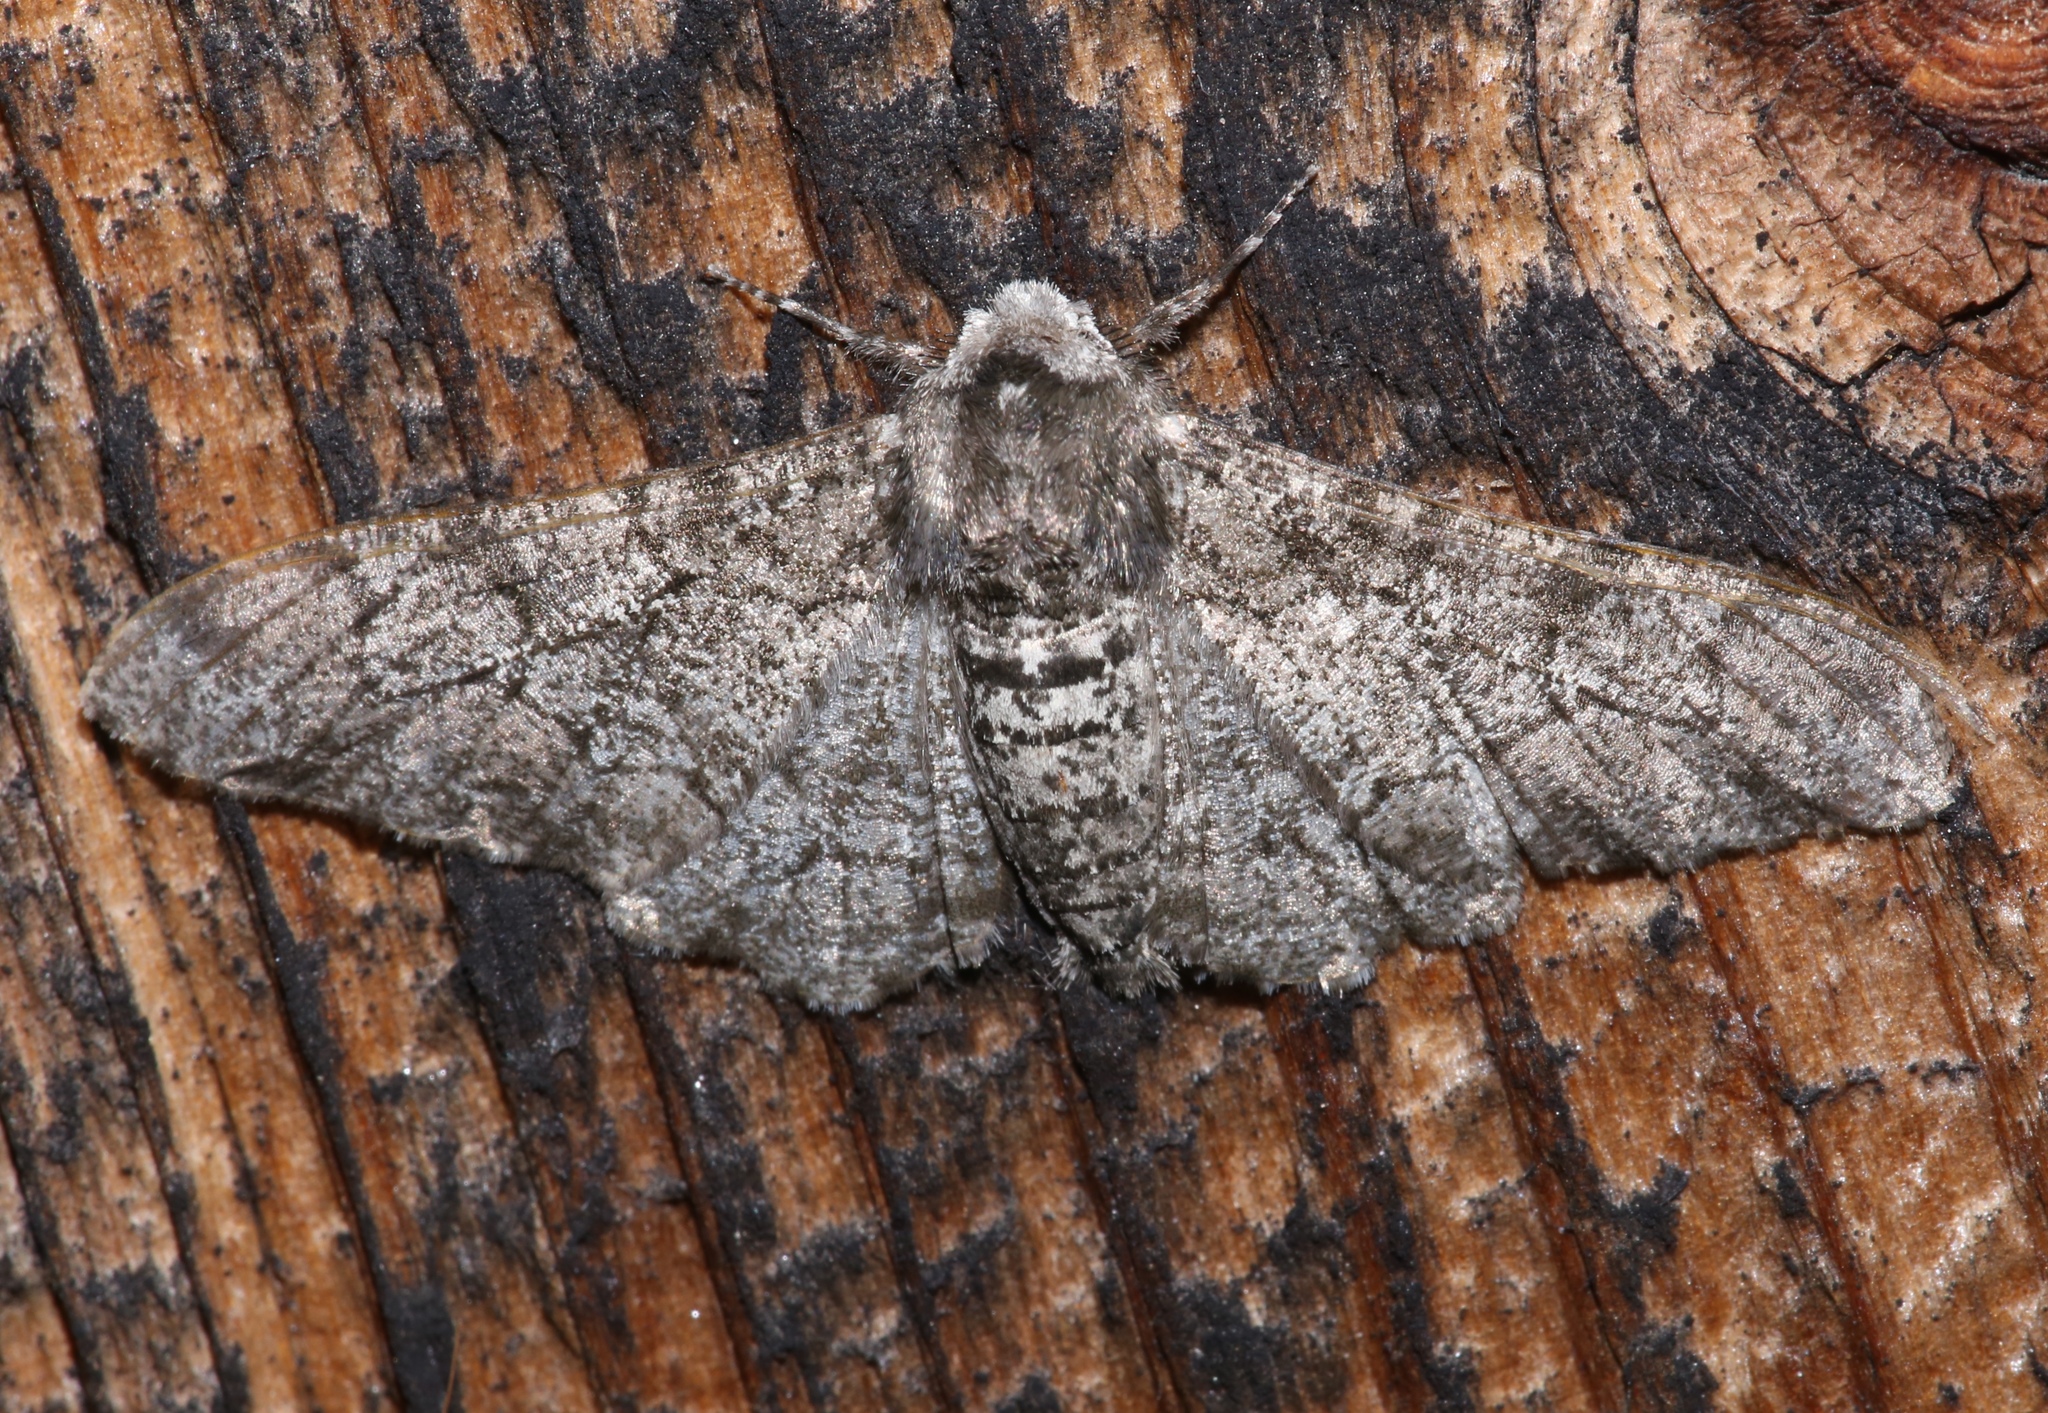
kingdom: Animalia
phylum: Arthropoda
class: Insecta
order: Lepidoptera
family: Geometridae
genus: Biston
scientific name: Biston betularia
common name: Peppered moth
